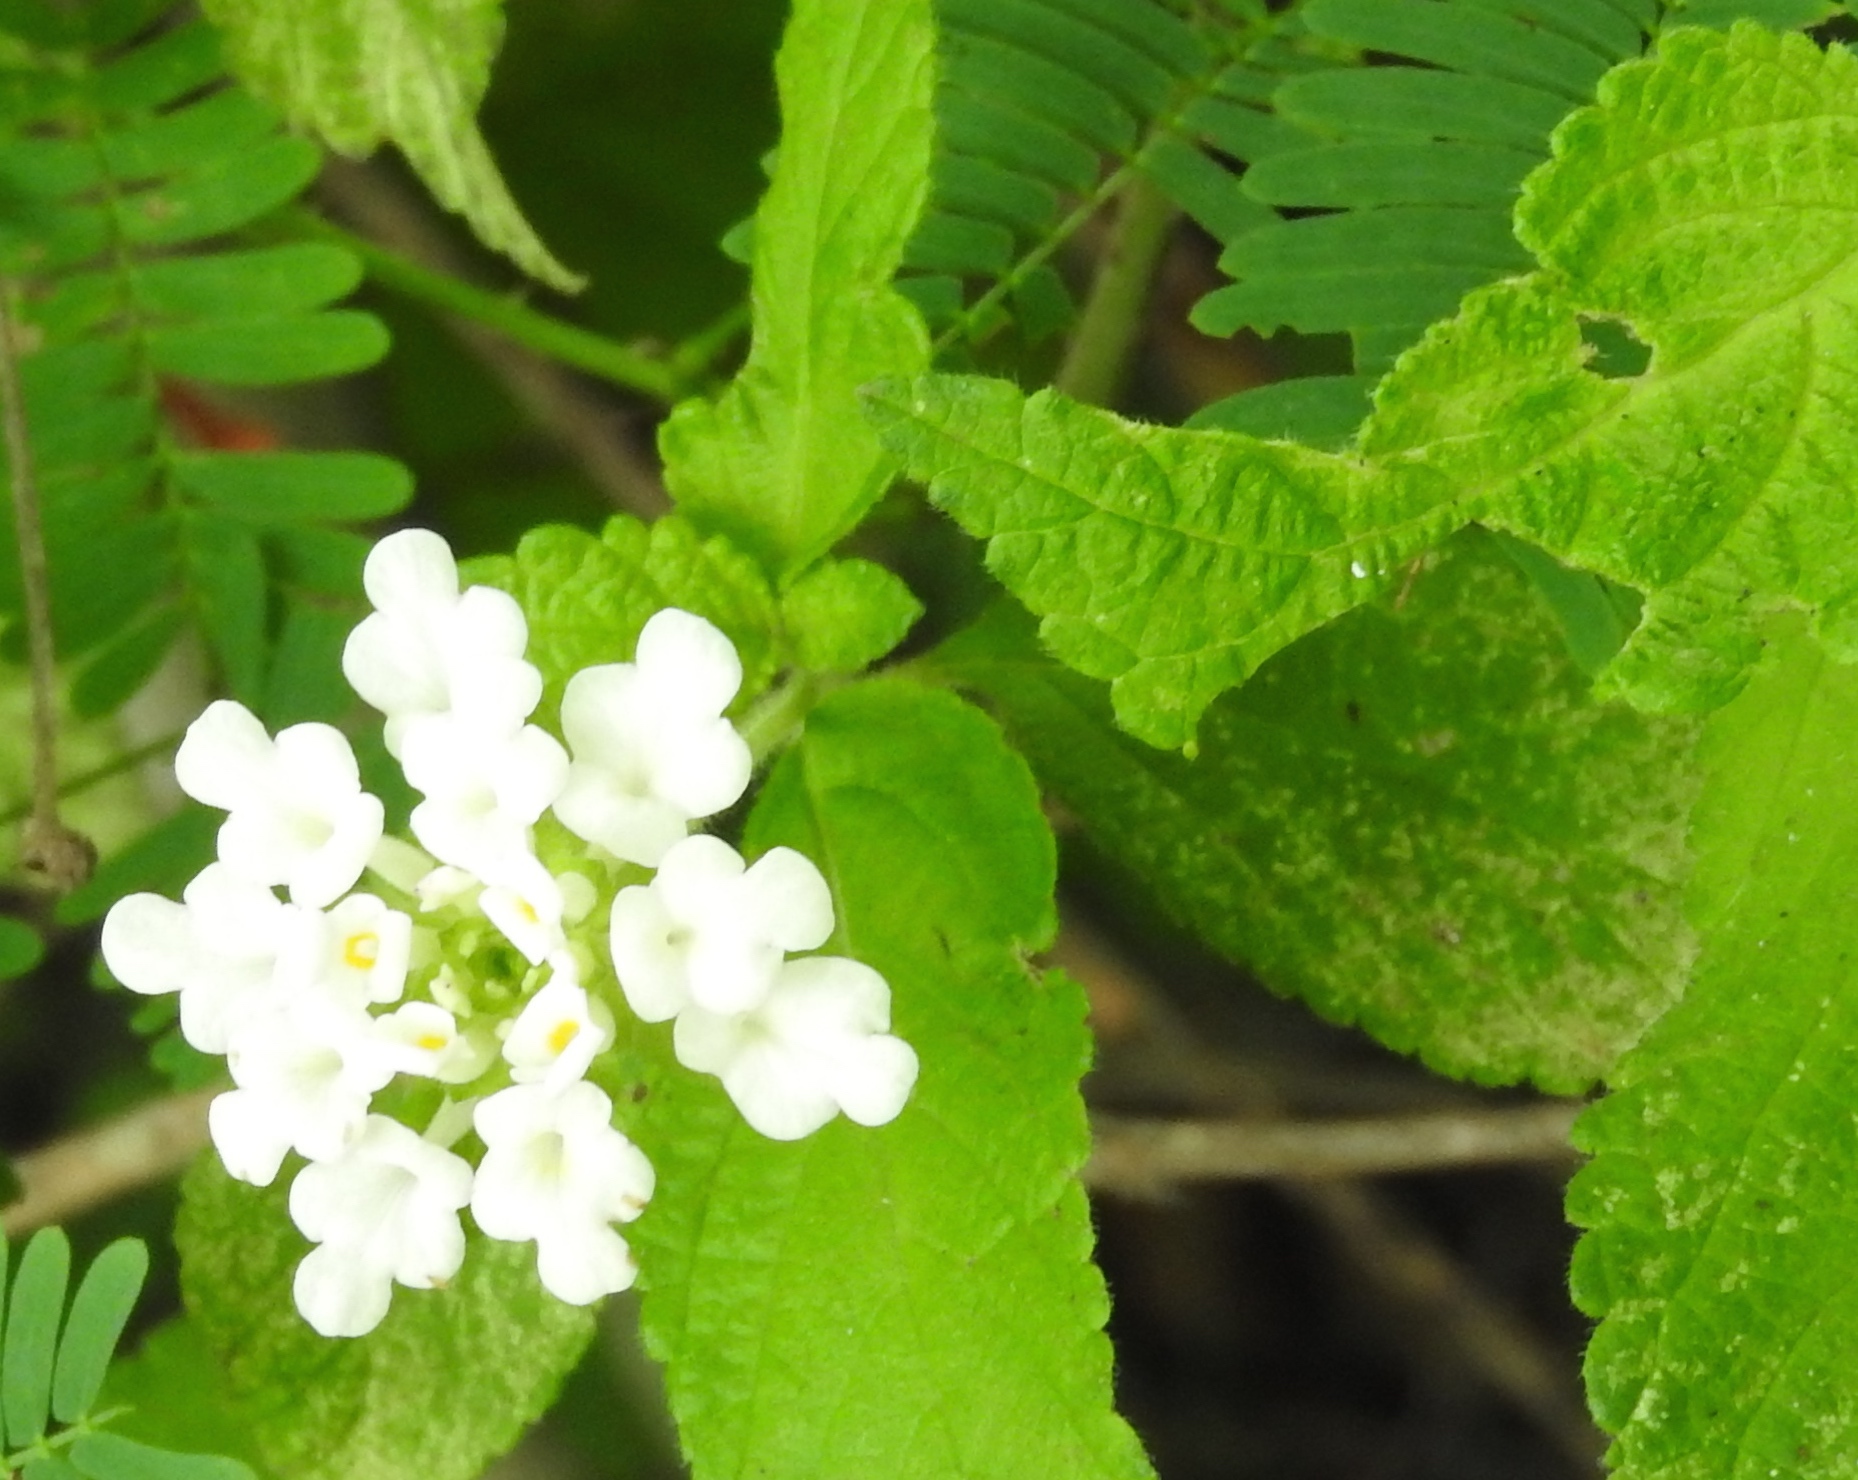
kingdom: Plantae
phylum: Tracheophyta
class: Magnoliopsida
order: Lamiales
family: Verbenaceae
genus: Lantana
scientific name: Lantana velutina
